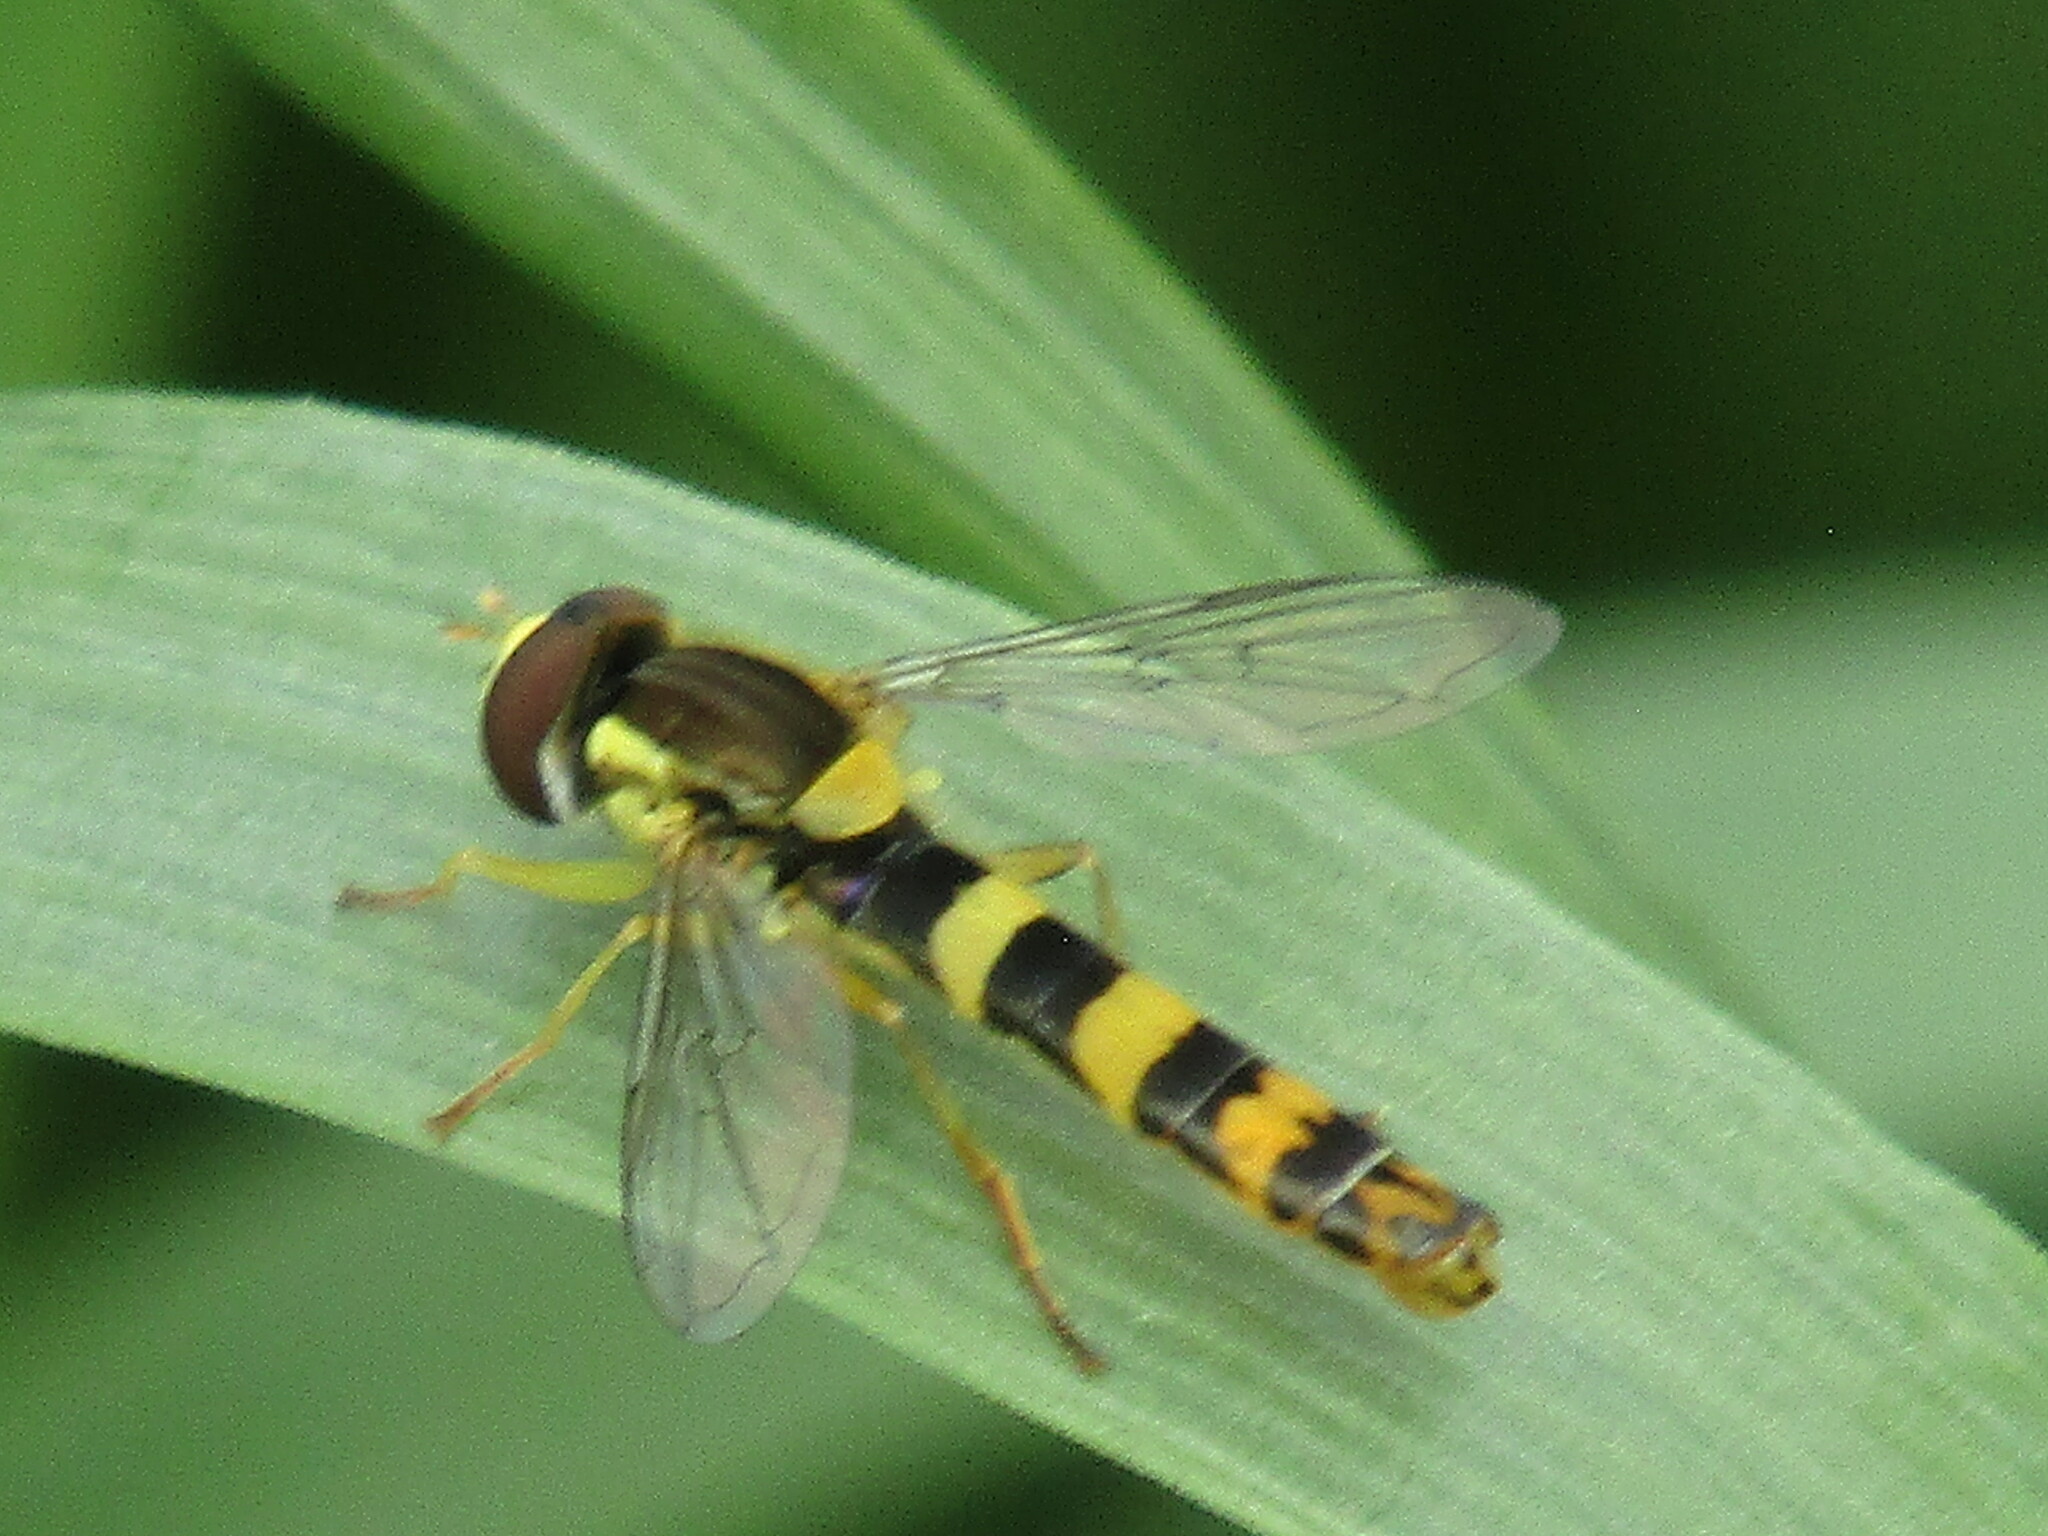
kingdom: Animalia
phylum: Arthropoda
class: Insecta
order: Diptera
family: Syrphidae
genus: Sphaerophoria
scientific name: Sphaerophoria scripta
